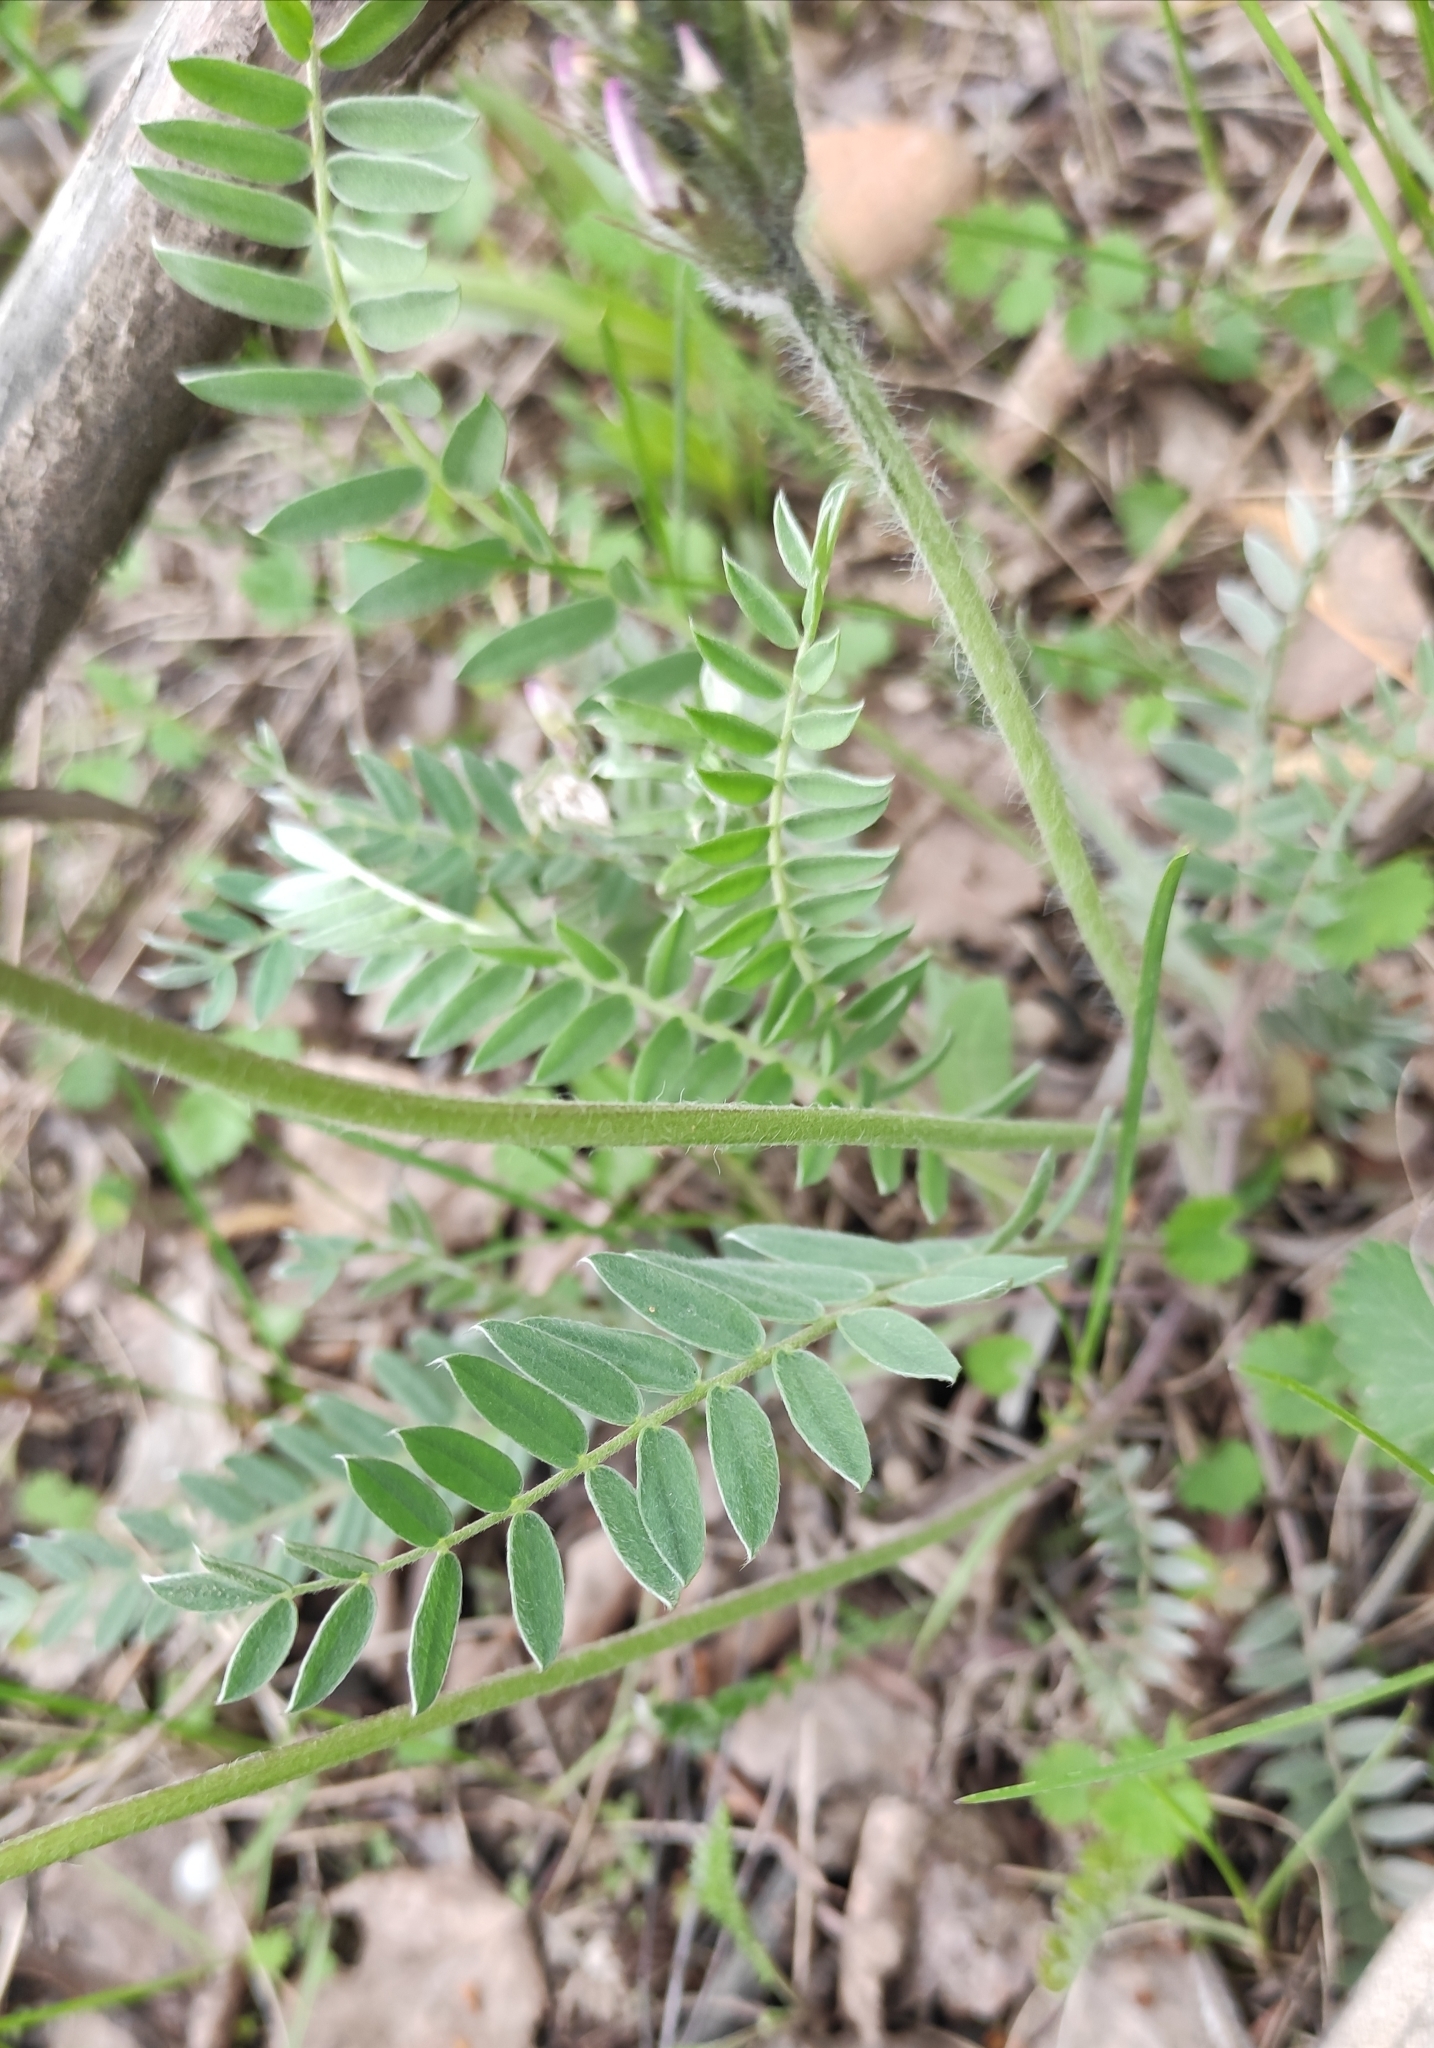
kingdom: Plantae
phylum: Tracheophyta
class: Magnoliopsida
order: Fabales
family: Fabaceae
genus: Oxytropis
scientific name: Oxytropis strobilacea
